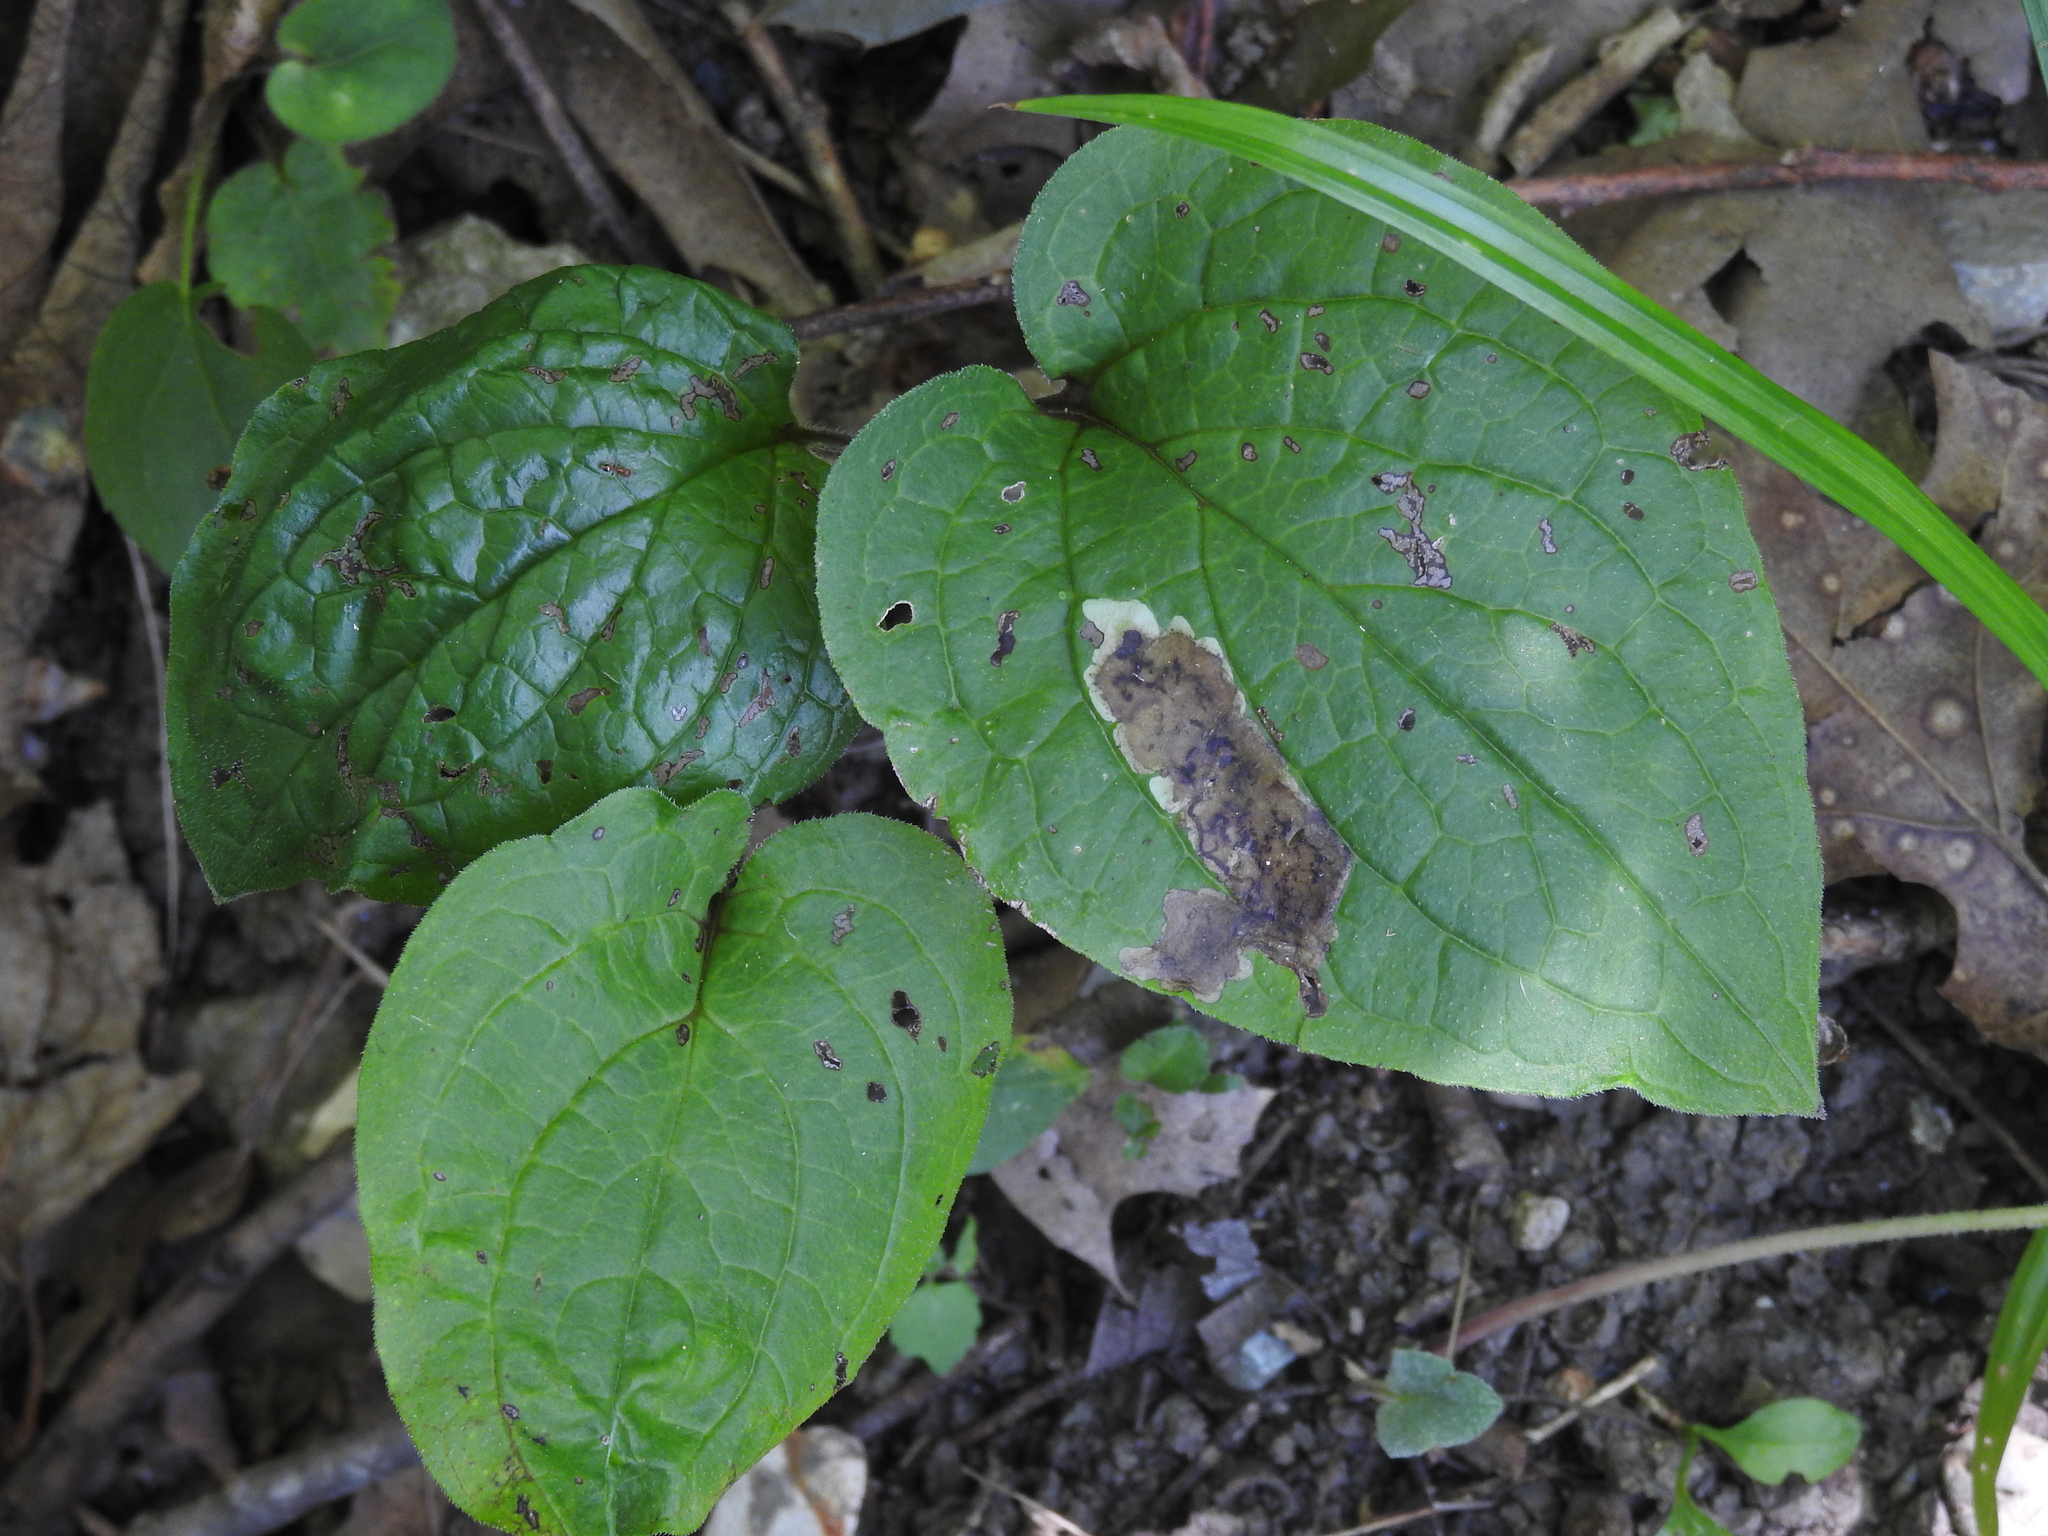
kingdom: Plantae
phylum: Tracheophyta
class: Magnoliopsida
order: Boraginales
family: Boraginaceae
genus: Hackelia
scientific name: Hackelia virginiana
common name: Beggar's-lice
